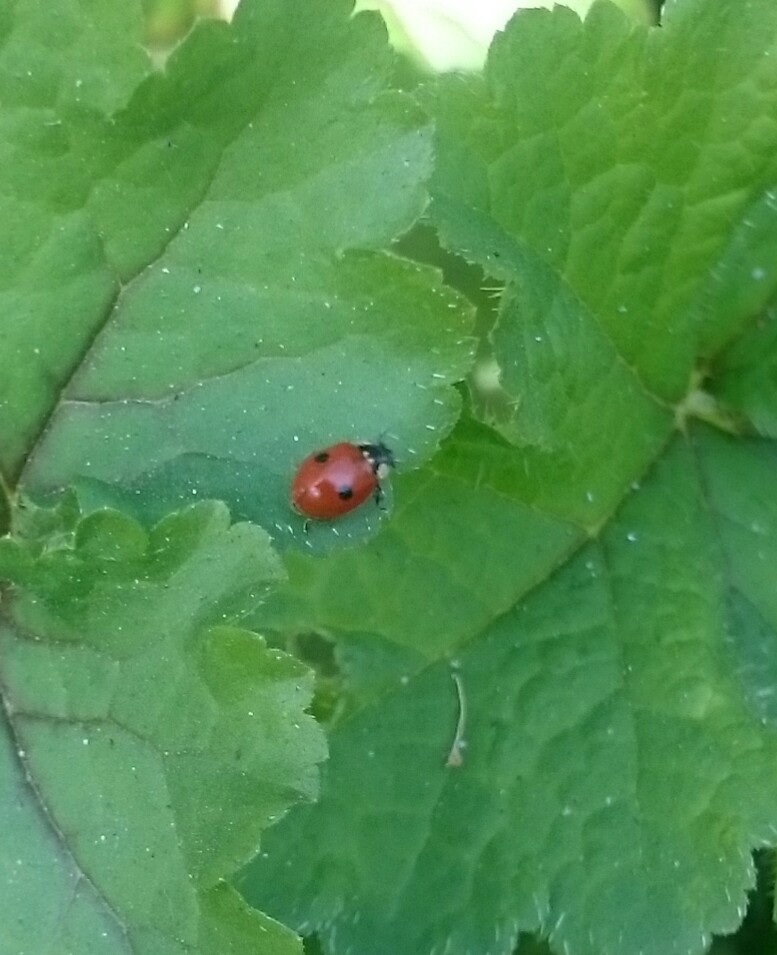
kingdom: Animalia
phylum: Arthropoda
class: Insecta
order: Coleoptera
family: Coccinellidae
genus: Adalia
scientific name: Adalia bipunctata
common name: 2-spot ladybird
